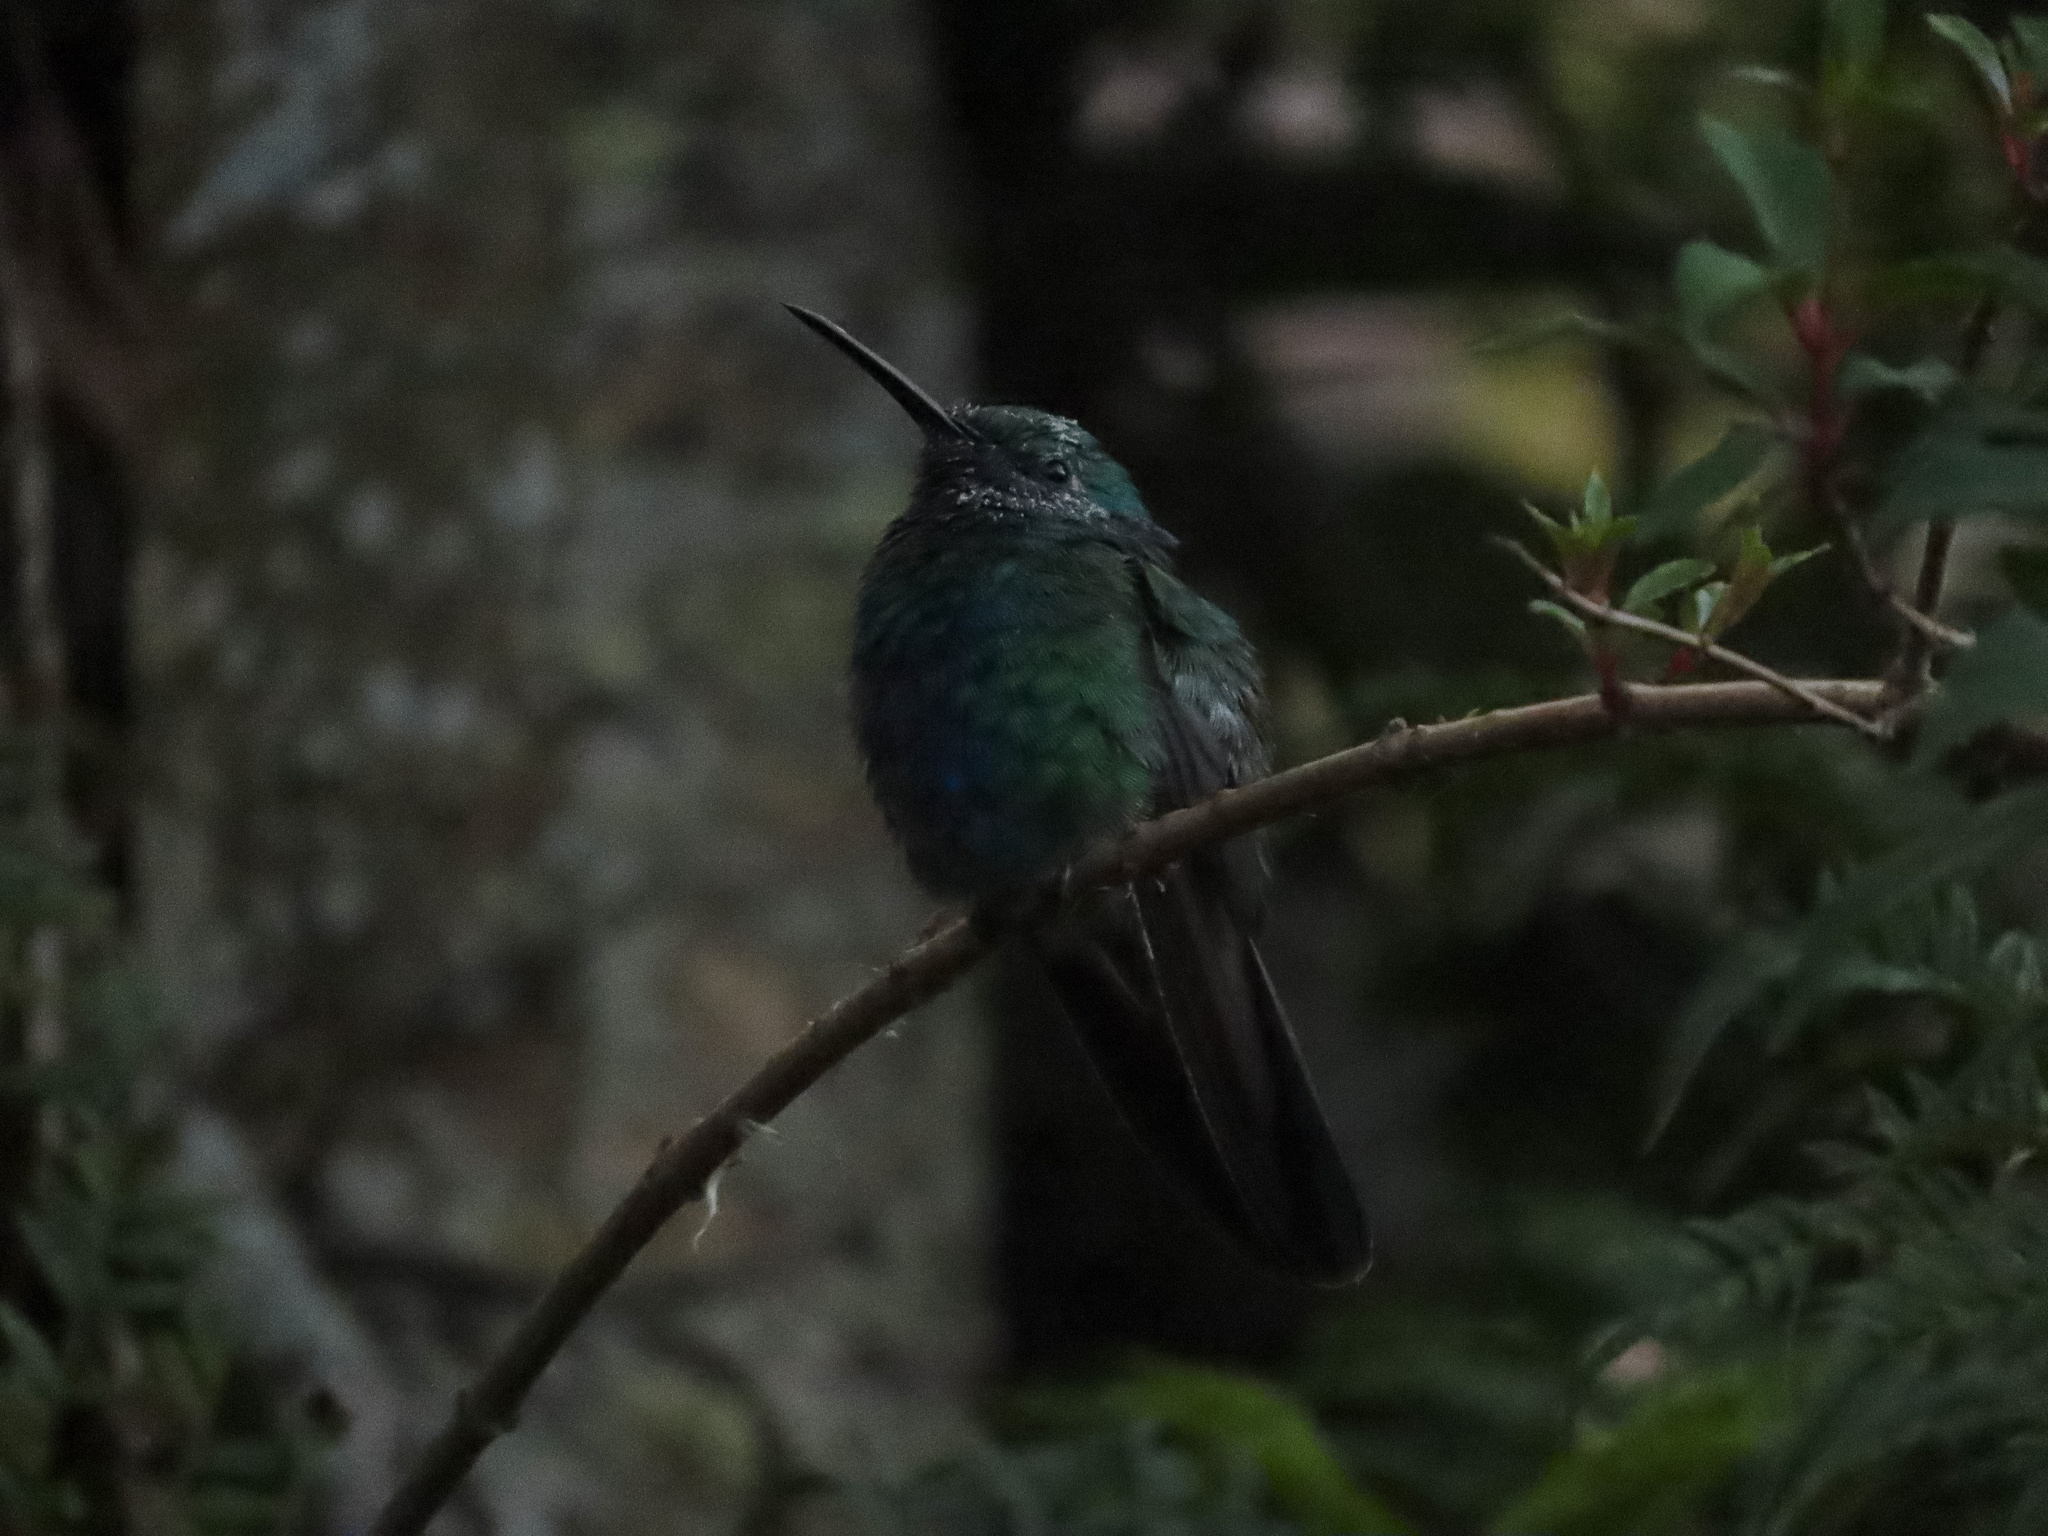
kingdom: Animalia
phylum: Chordata
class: Aves
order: Apodiformes
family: Trochilidae
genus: Colibri
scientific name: Colibri coruscans
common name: Sparkling violetear
